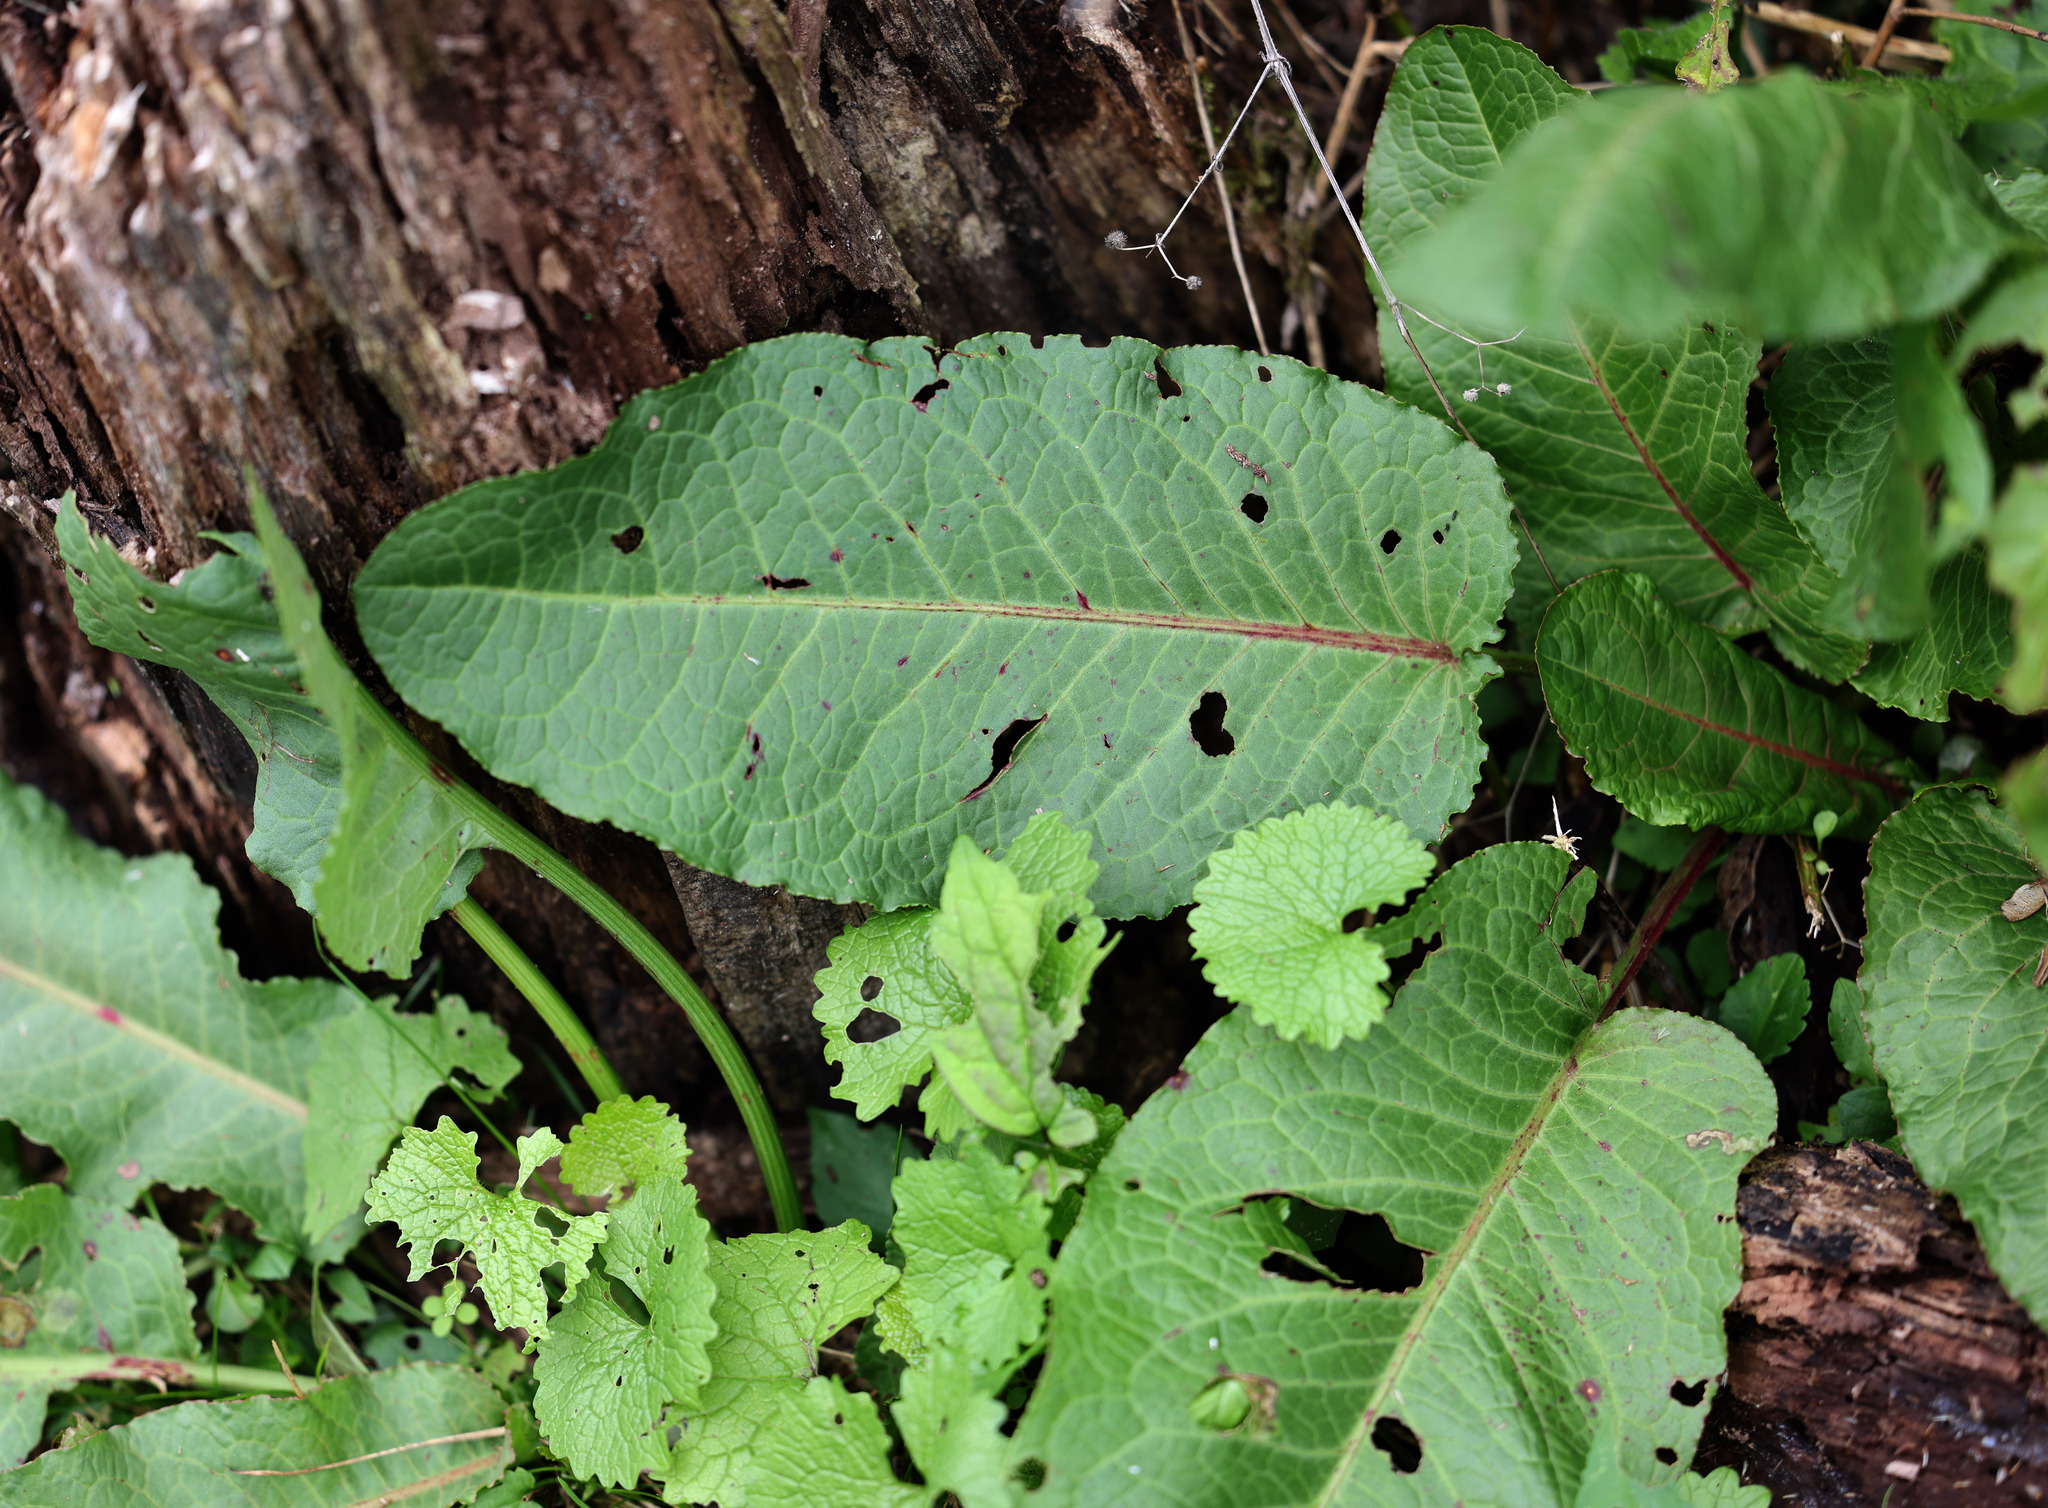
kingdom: Plantae
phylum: Tracheophyta
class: Magnoliopsida
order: Caryophyllales
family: Polygonaceae
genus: Rumex
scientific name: Rumex obtusifolius
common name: Bitter dock
